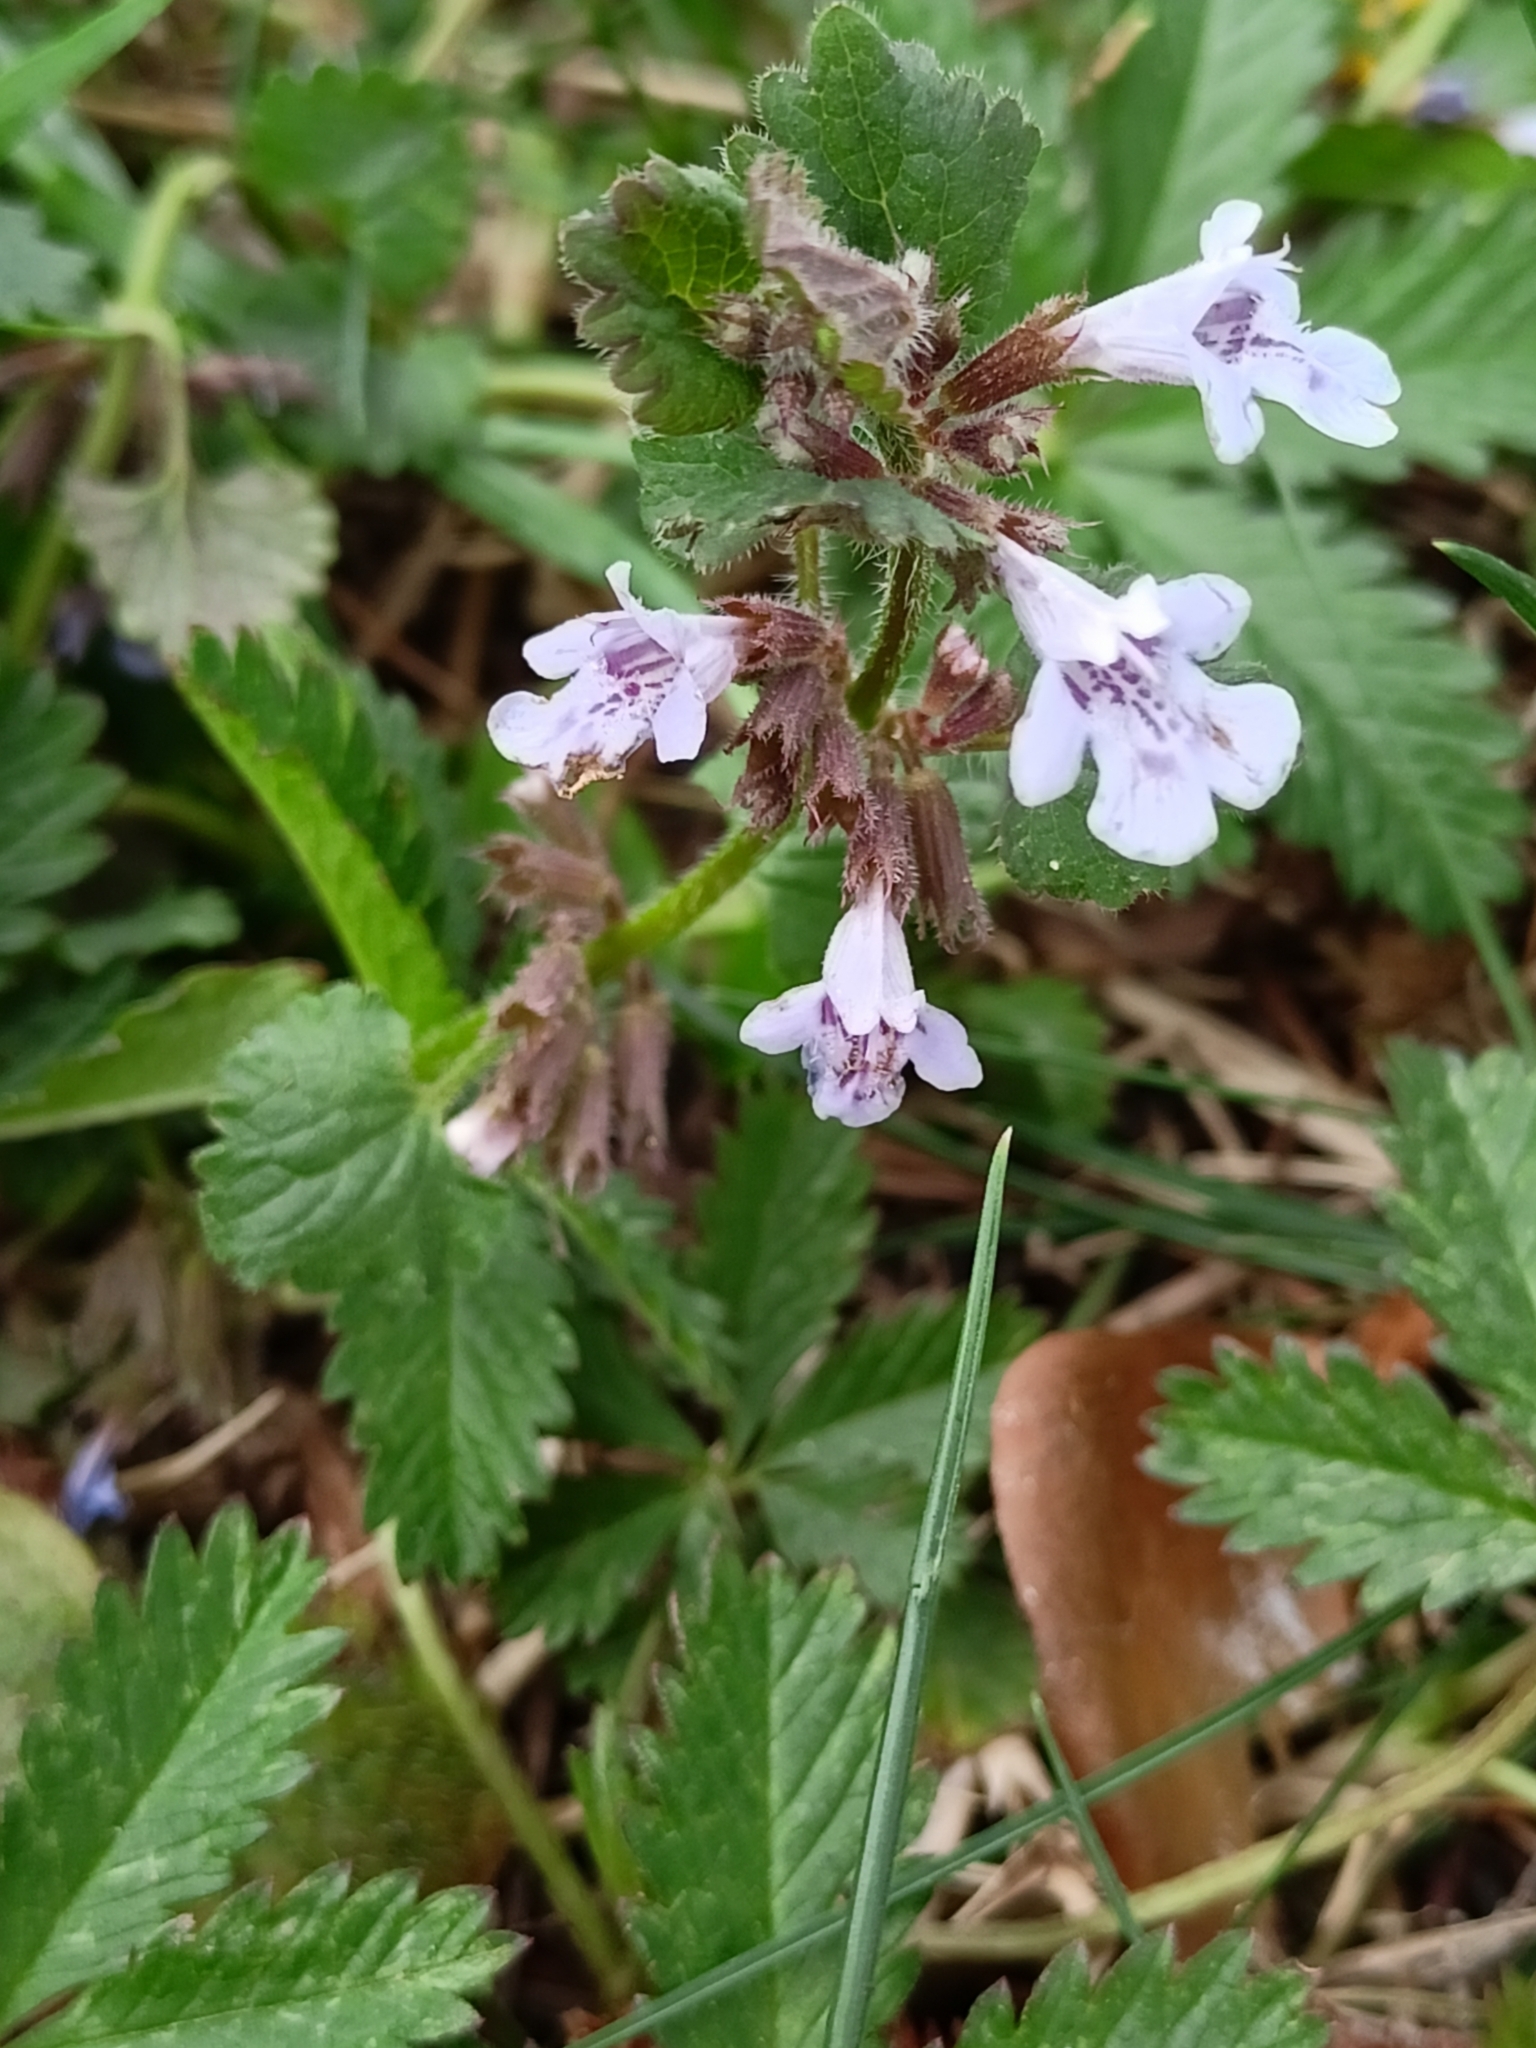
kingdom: Plantae
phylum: Tracheophyta
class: Magnoliopsida
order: Lamiales
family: Lamiaceae
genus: Glechoma
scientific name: Glechoma hederacea
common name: Ground ivy
